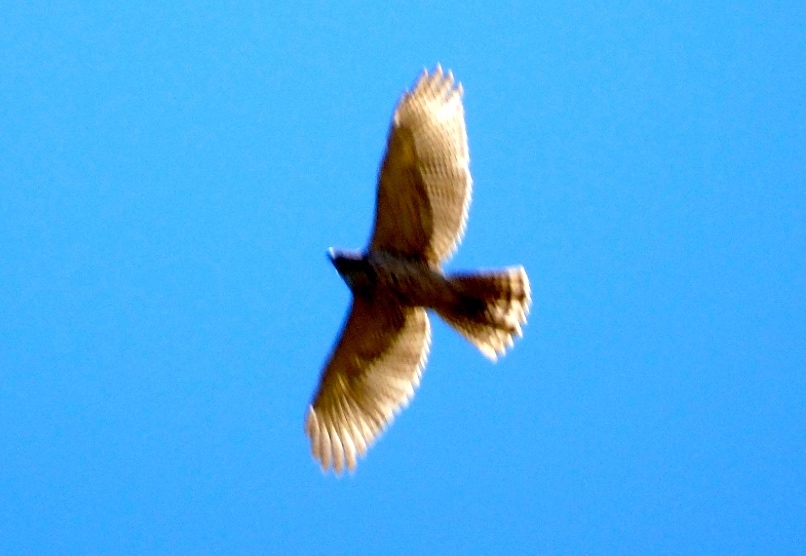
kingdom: Animalia
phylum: Chordata
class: Aves
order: Accipitriformes
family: Accipitridae
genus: Buteo
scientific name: Buteo nitidus
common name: Grey-lined hawk
